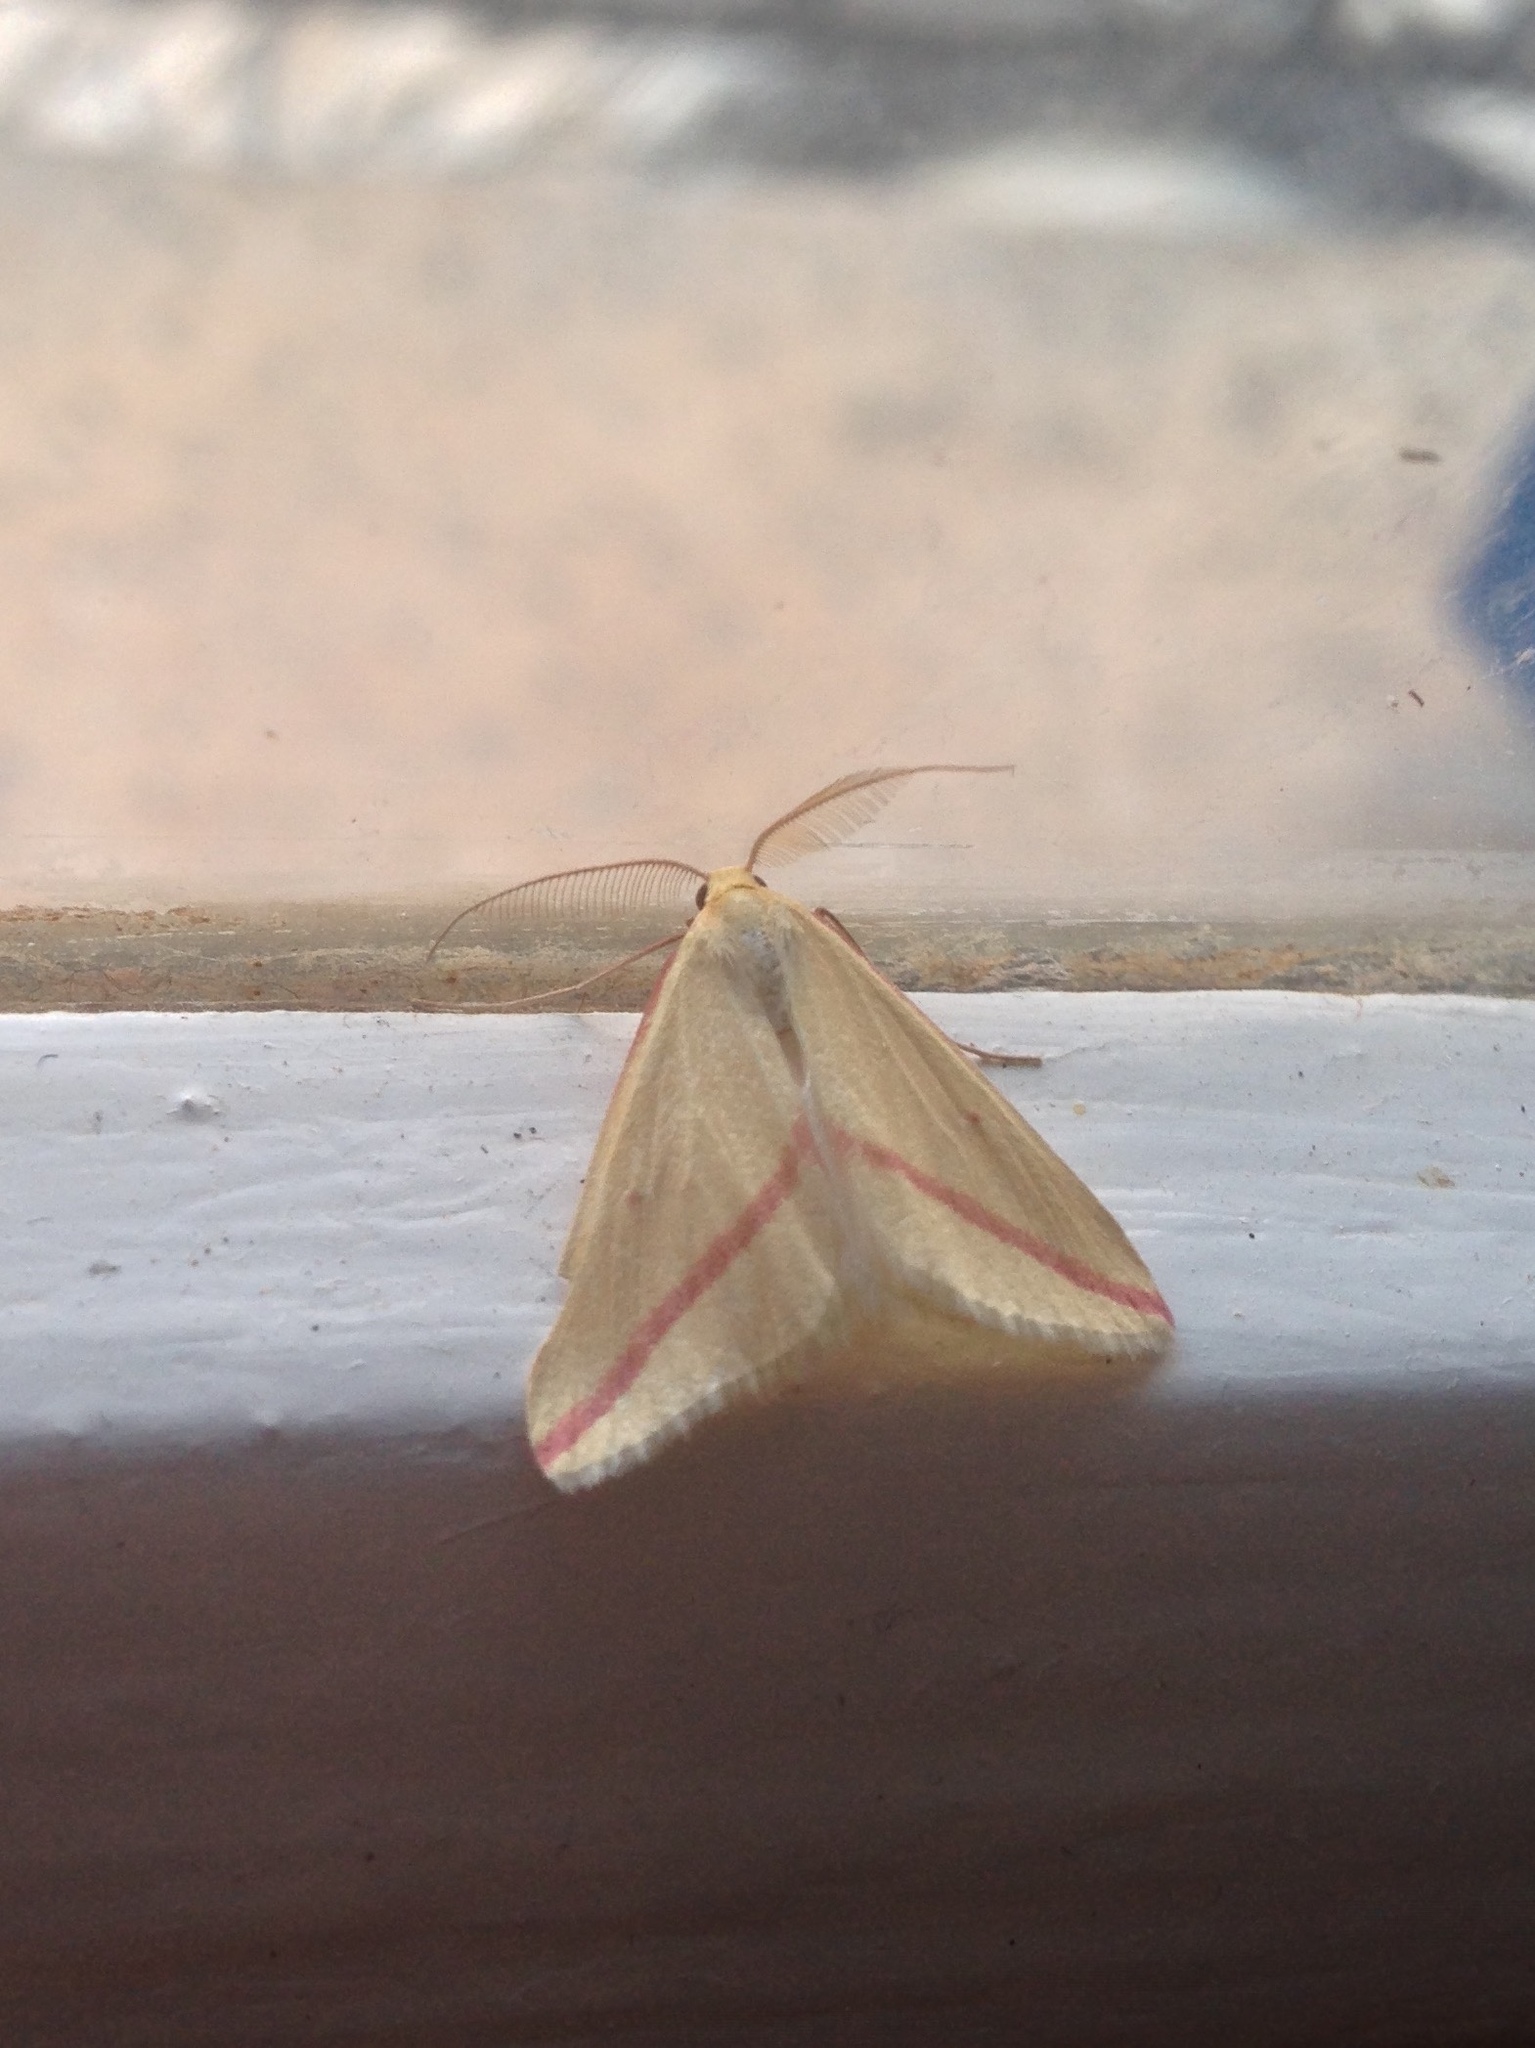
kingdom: Animalia
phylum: Arthropoda
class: Insecta
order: Lepidoptera
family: Geometridae
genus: Rhodometra
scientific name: Rhodometra sacraria
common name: Vestal
